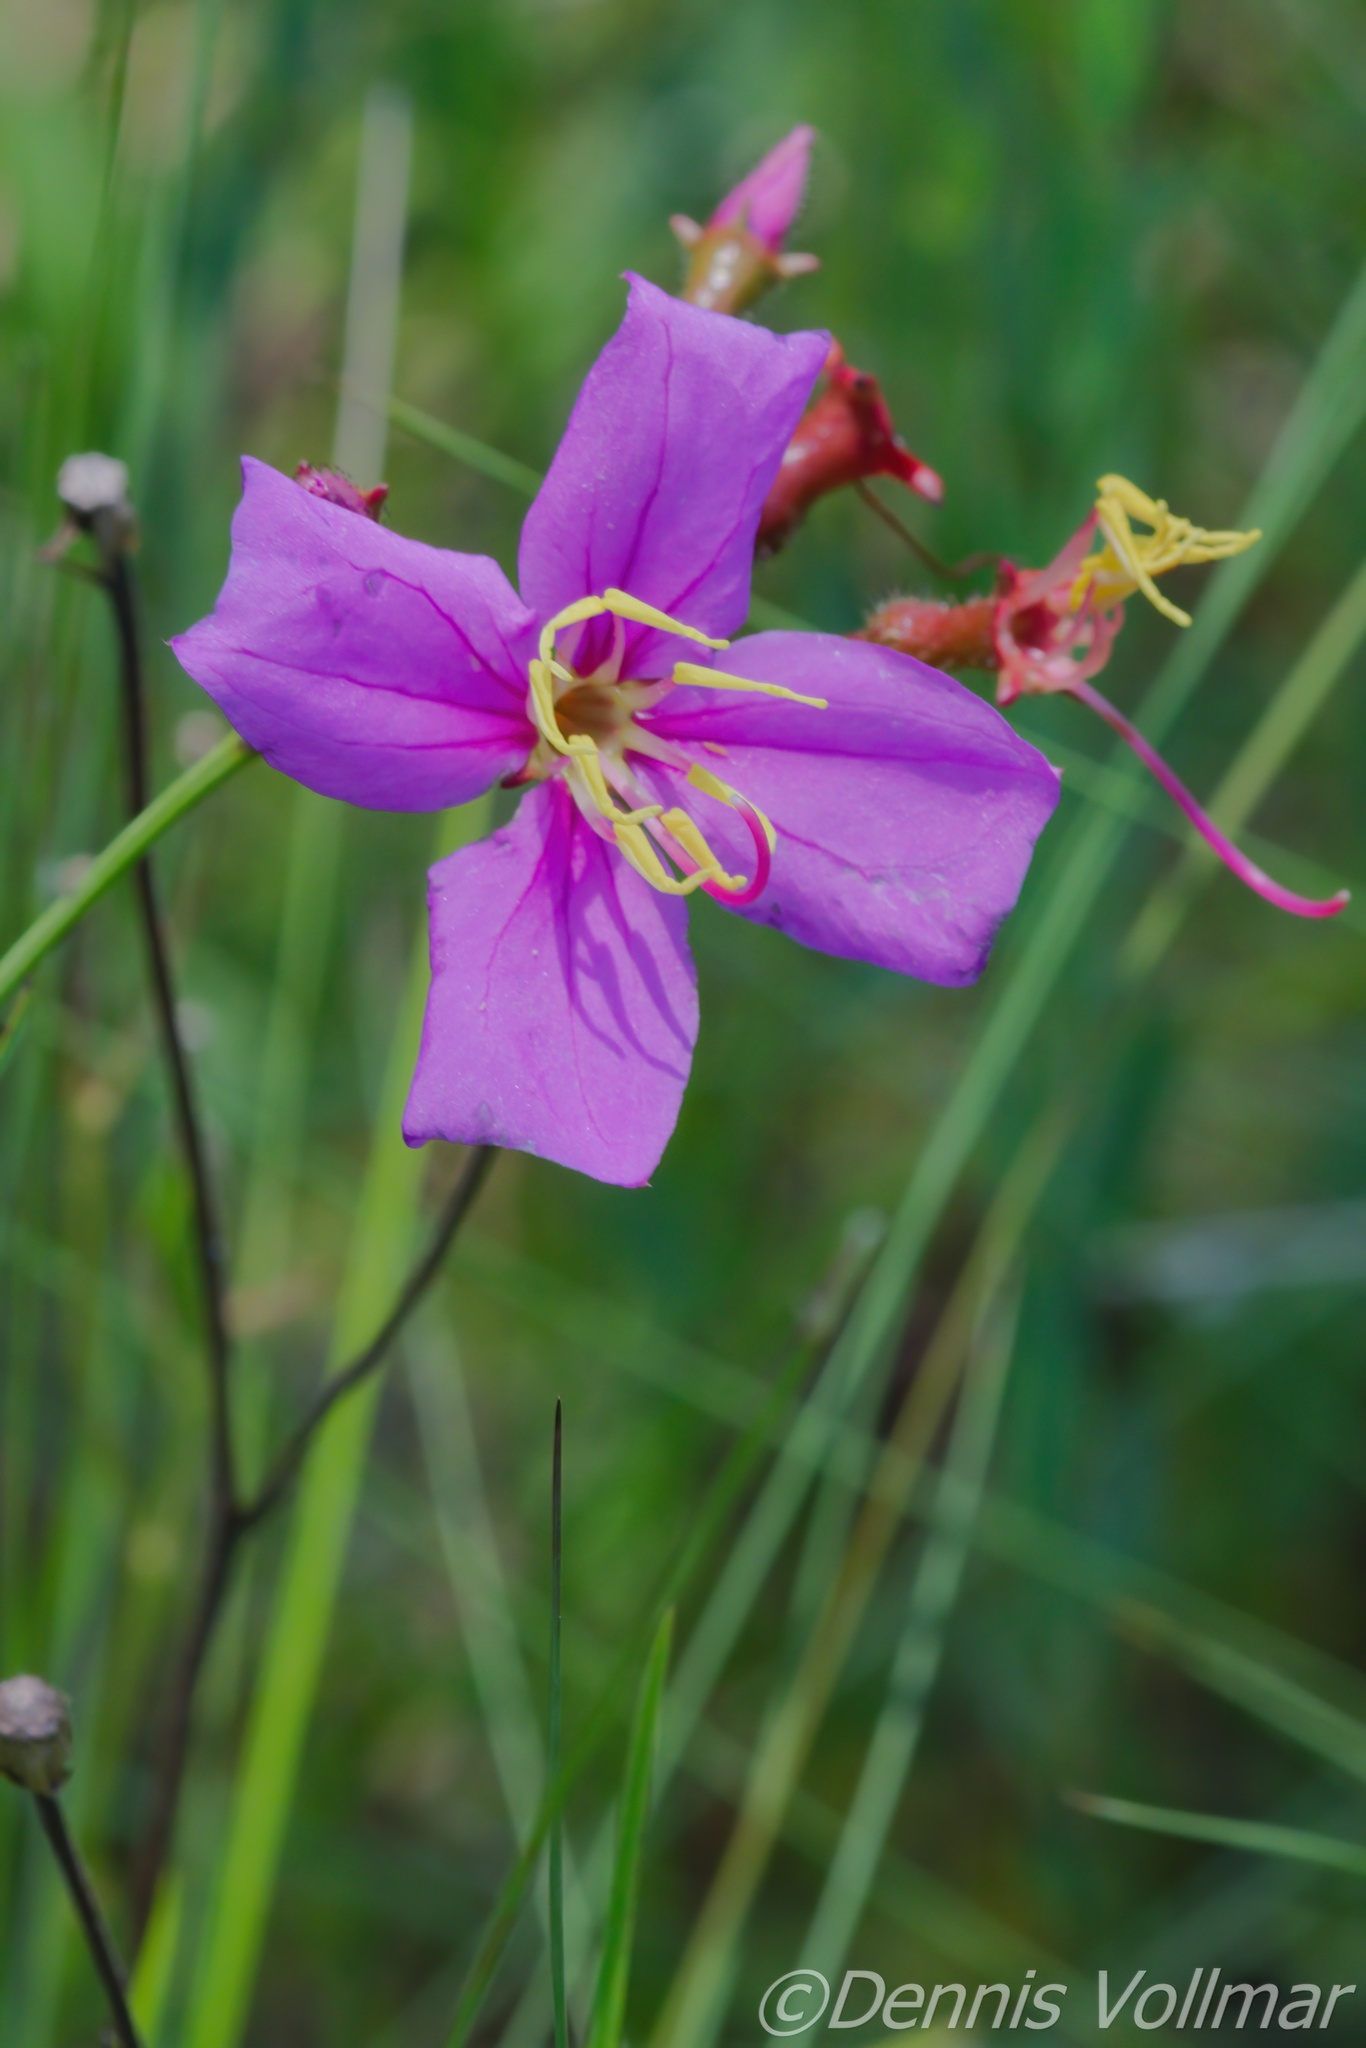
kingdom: Plantae
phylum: Tracheophyta
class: Magnoliopsida
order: Myrtales
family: Melastomataceae
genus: Rhexia
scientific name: Rhexia alifanus
